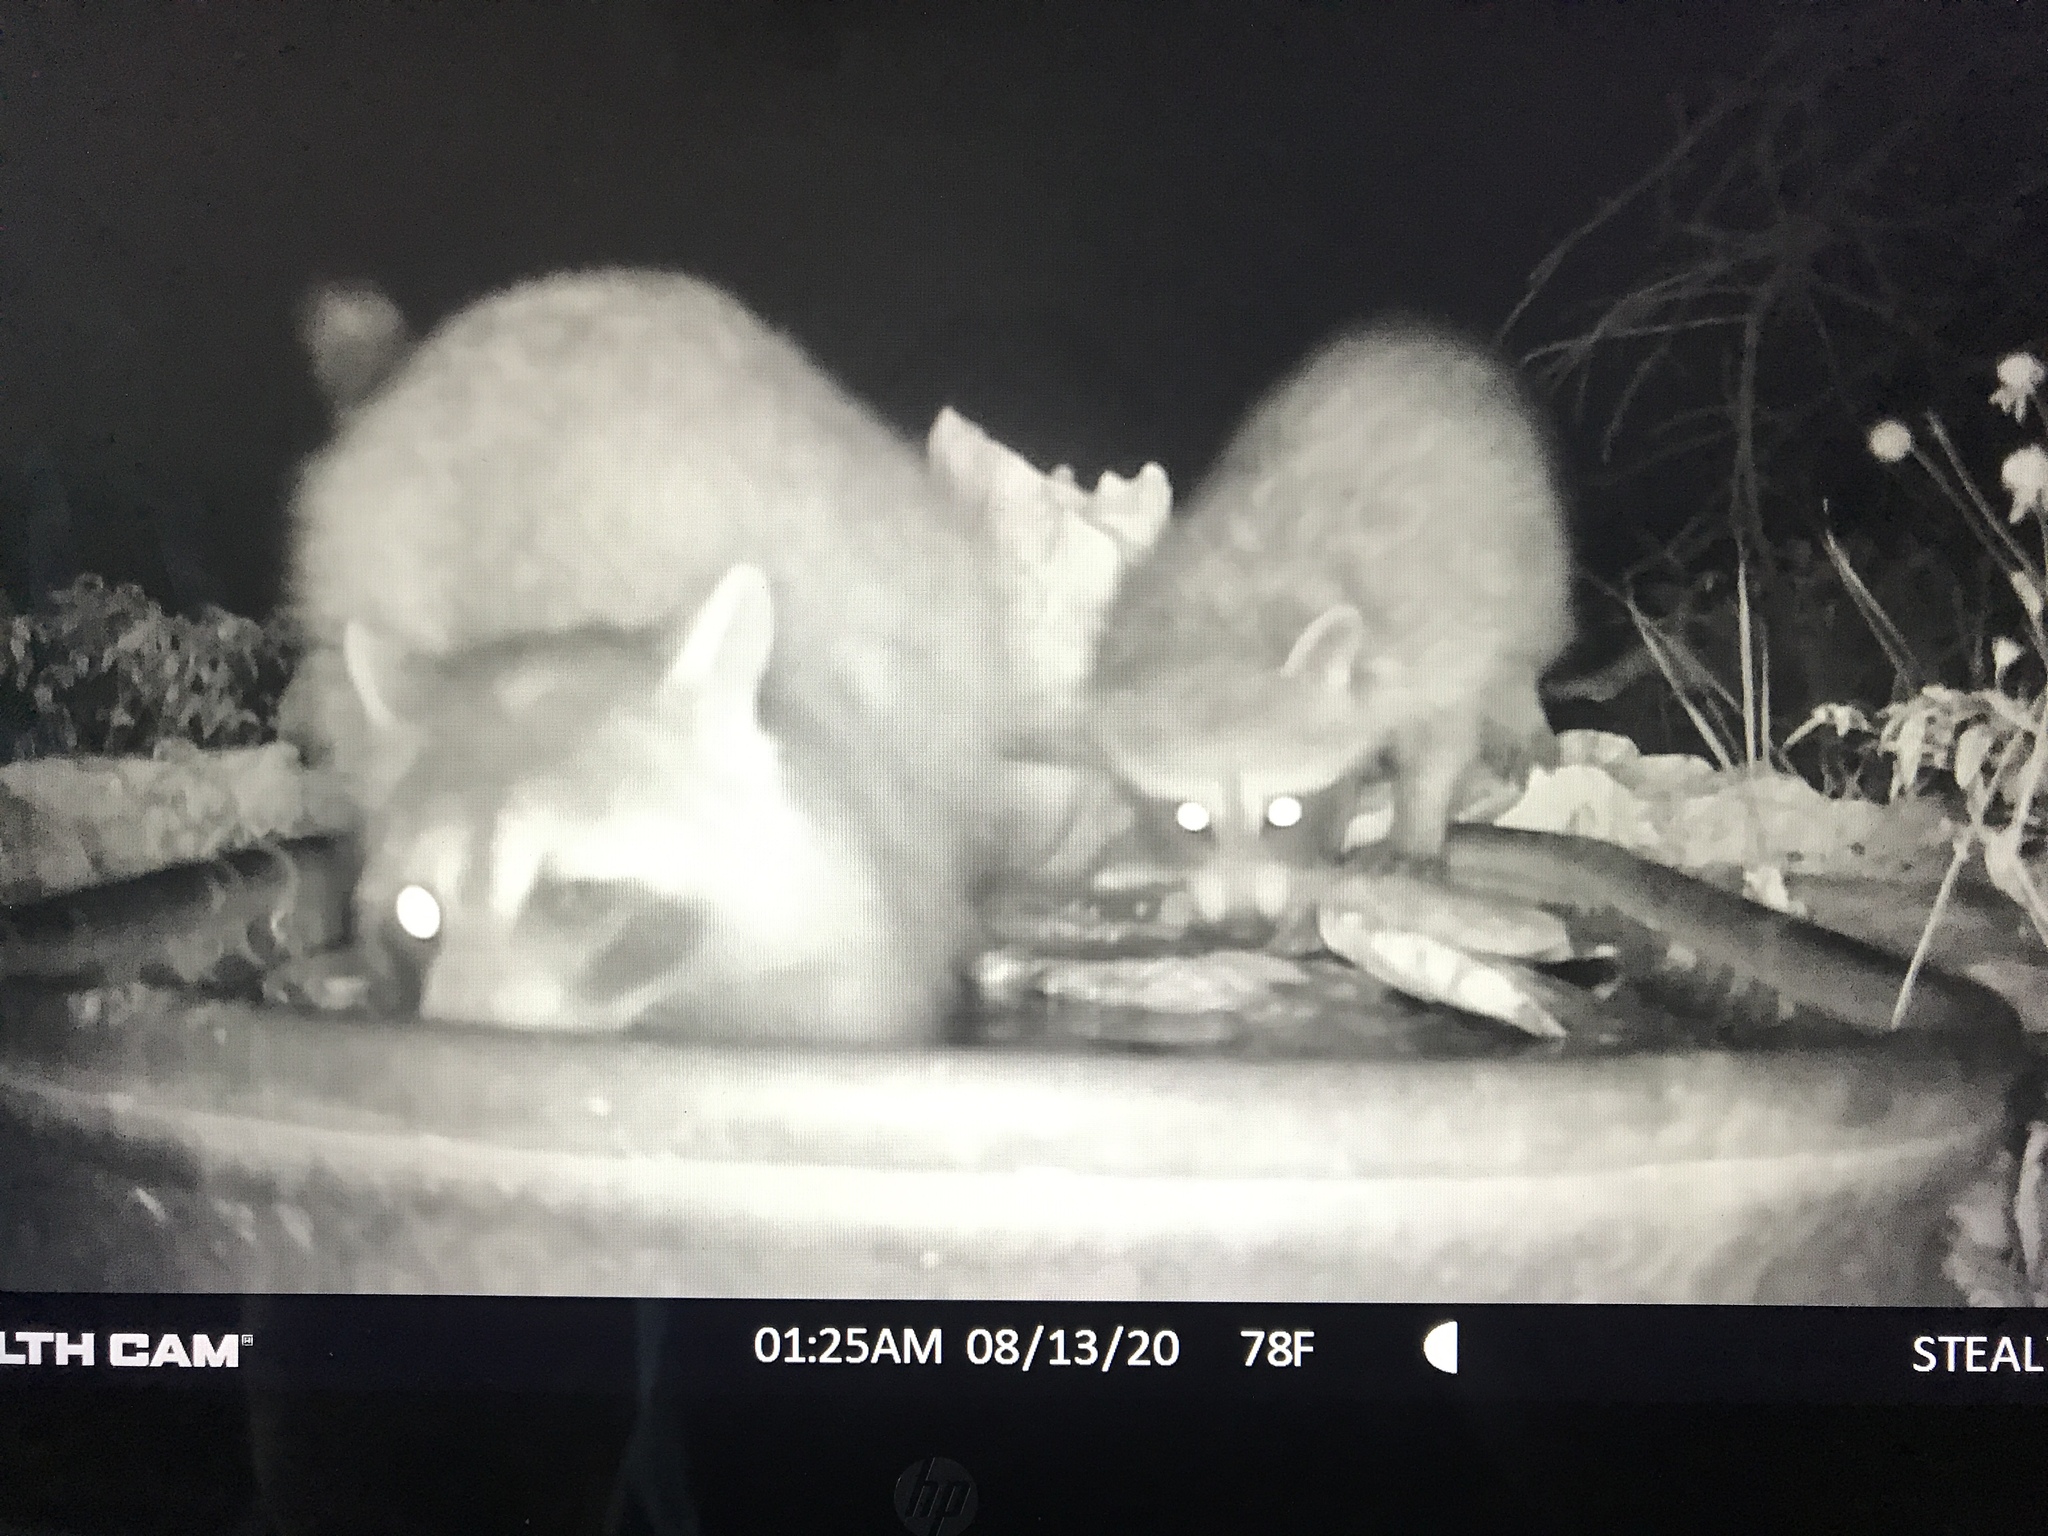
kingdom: Animalia
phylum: Chordata
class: Mammalia
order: Carnivora
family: Procyonidae
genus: Procyon
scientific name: Procyon lotor
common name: Raccoon
